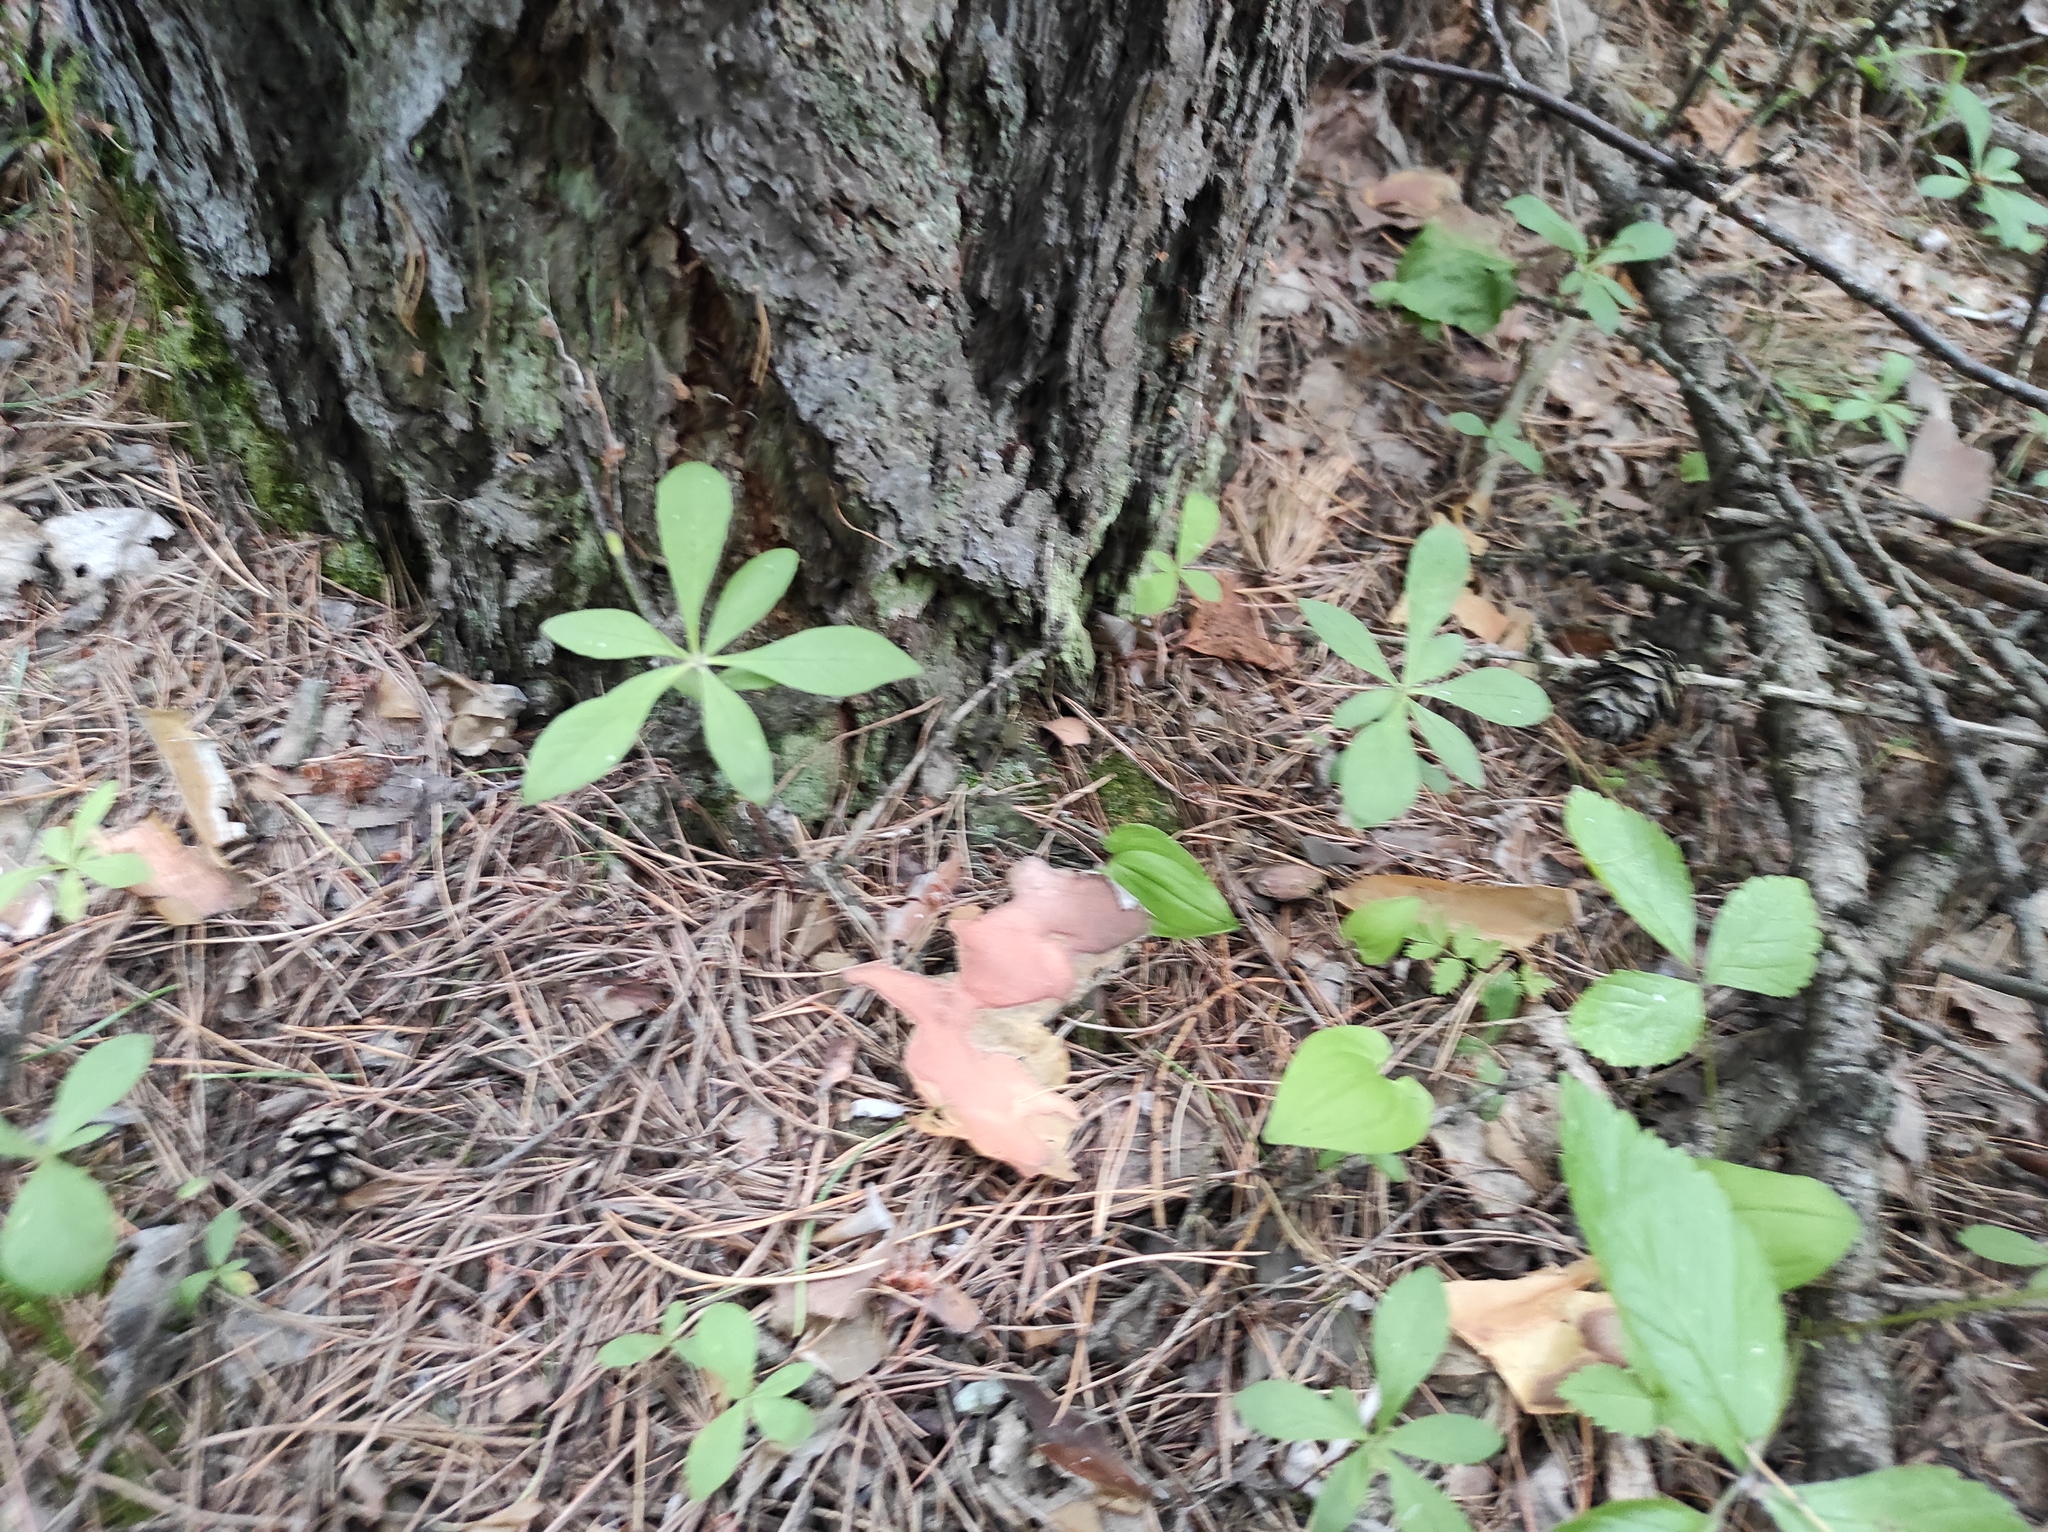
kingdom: Plantae
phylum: Tracheophyta
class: Magnoliopsida
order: Ericales
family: Primulaceae
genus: Lysimachia
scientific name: Lysimachia europaea
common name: Arctic starflower
